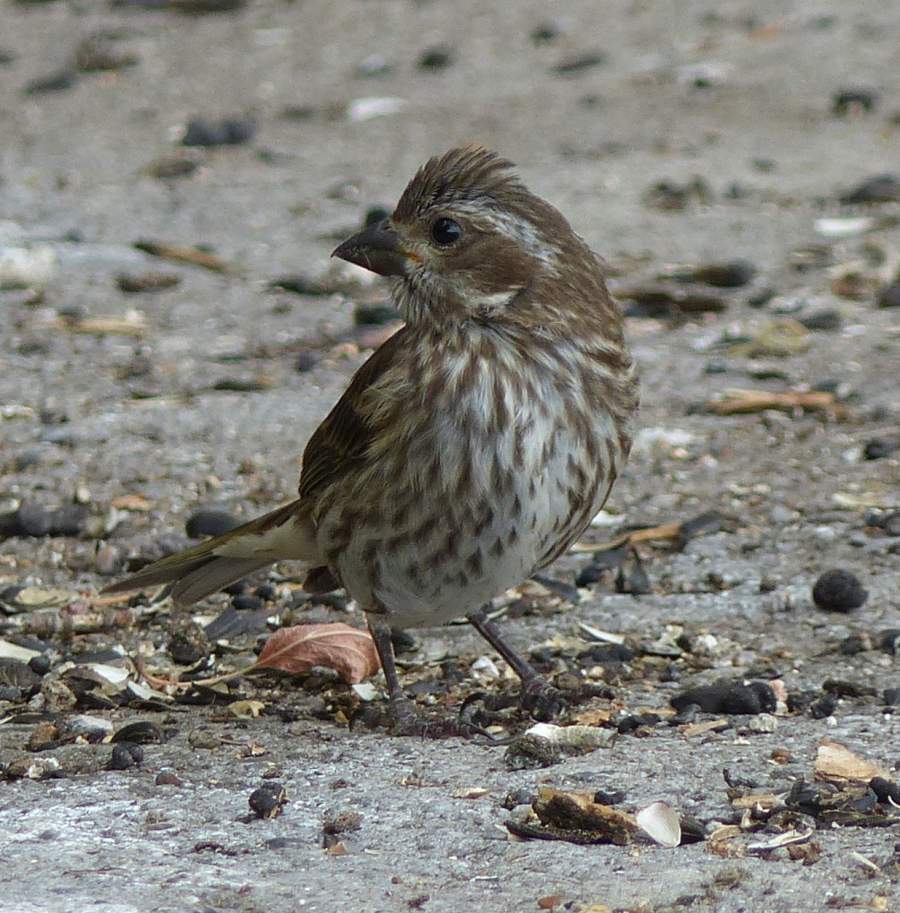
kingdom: Animalia
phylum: Chordata
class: Aves
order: Passeriformes
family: Fringillidae
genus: Haemorhous
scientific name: Haemorhous purpureus
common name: Purple finch
